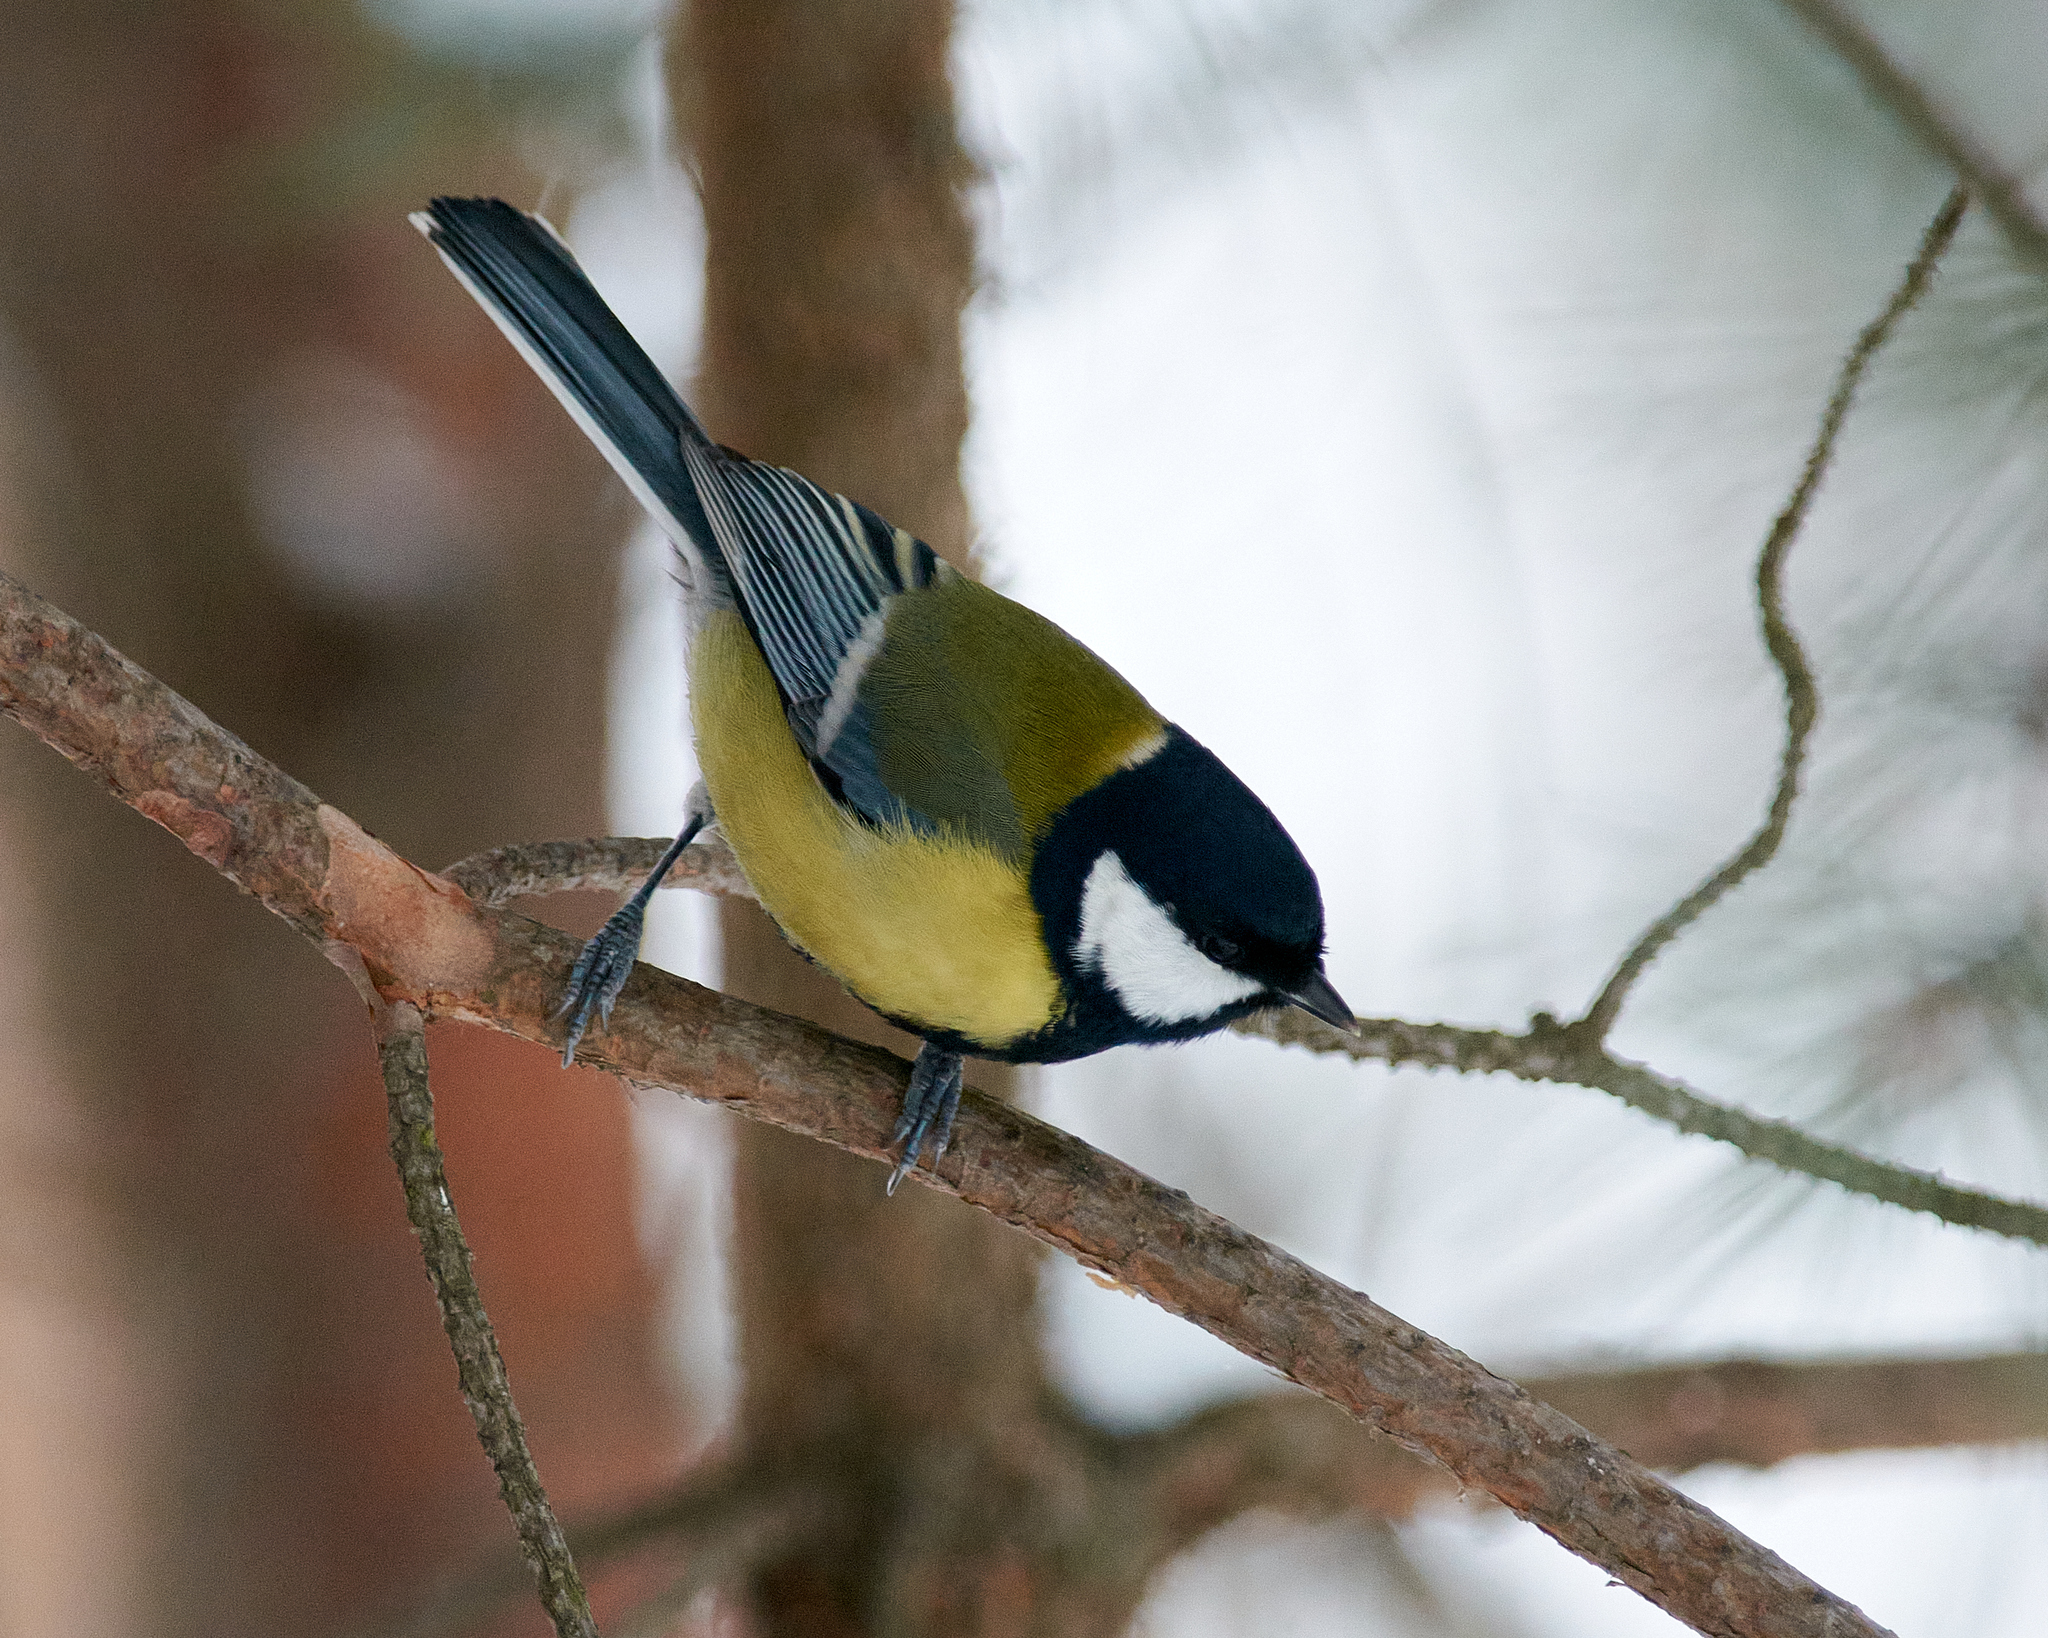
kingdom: Animalia
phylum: Chordata
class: Aves
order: Passeriformes
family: Paridae
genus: Parus
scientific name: Parus major
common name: Great tit
